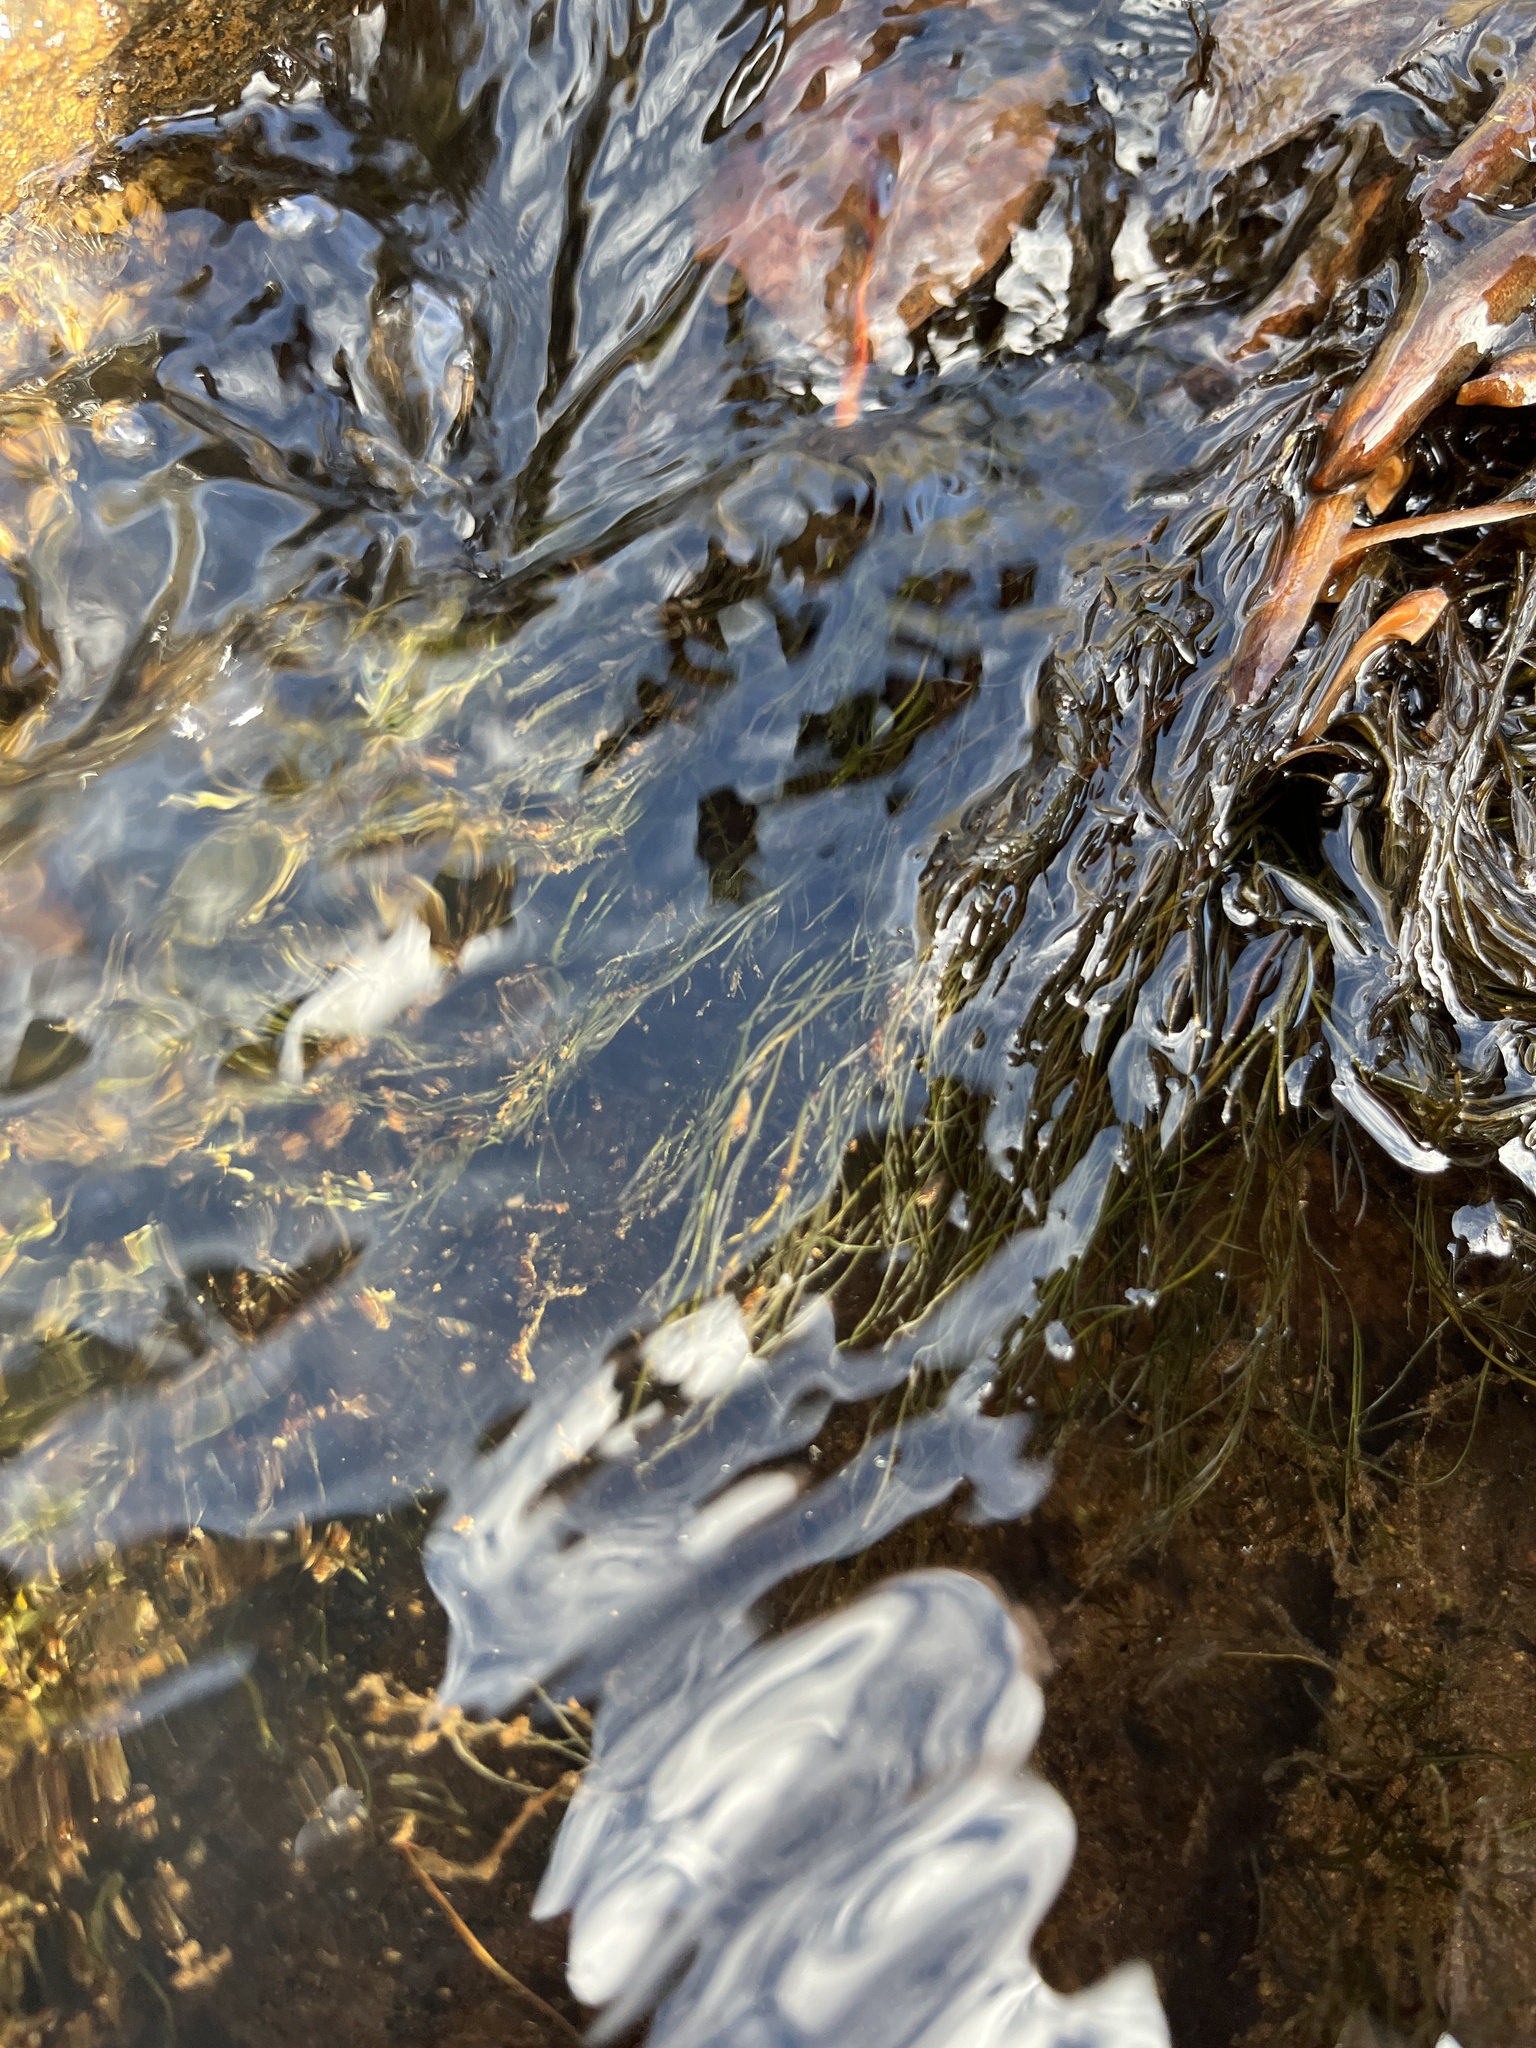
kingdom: Plantae
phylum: Tracheophyta
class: Magnoliopsida
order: Malpighiales
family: Podostemaceae
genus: Podostemum
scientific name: Podostemum ceratophyllum
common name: Horn-leaved riverweed
